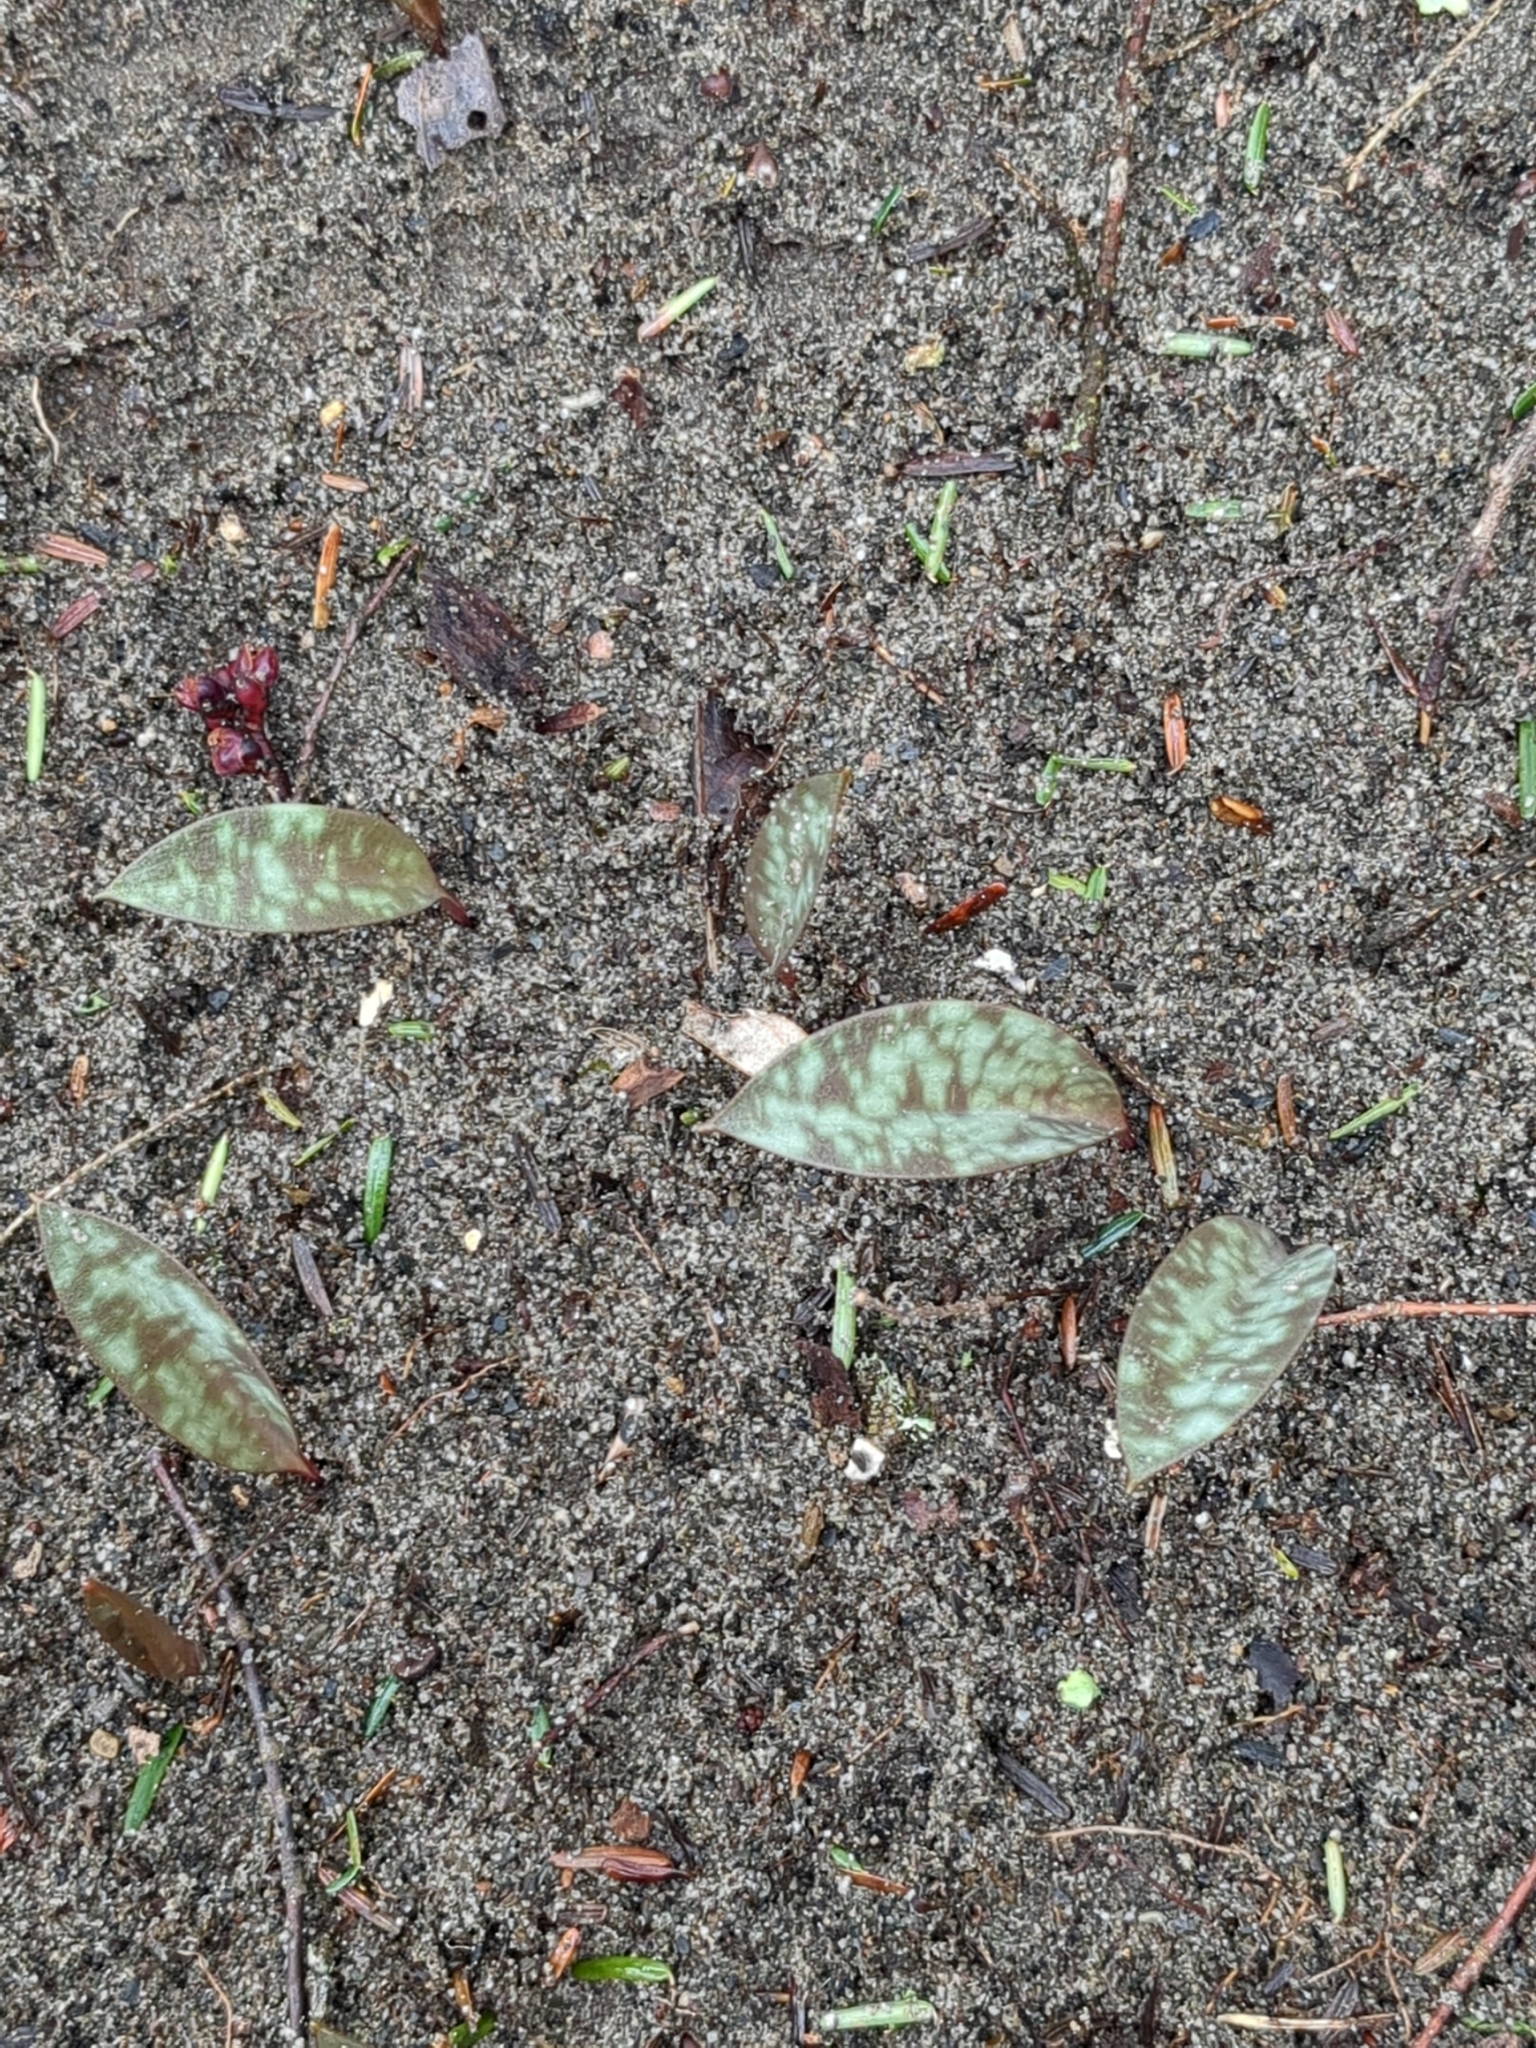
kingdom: Plantae
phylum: Tracheophyta
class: Liliopsida
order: Liliales
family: Liliaceae
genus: Erythronium
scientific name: Erythronium americanum
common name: Yellow adder's-tongue
